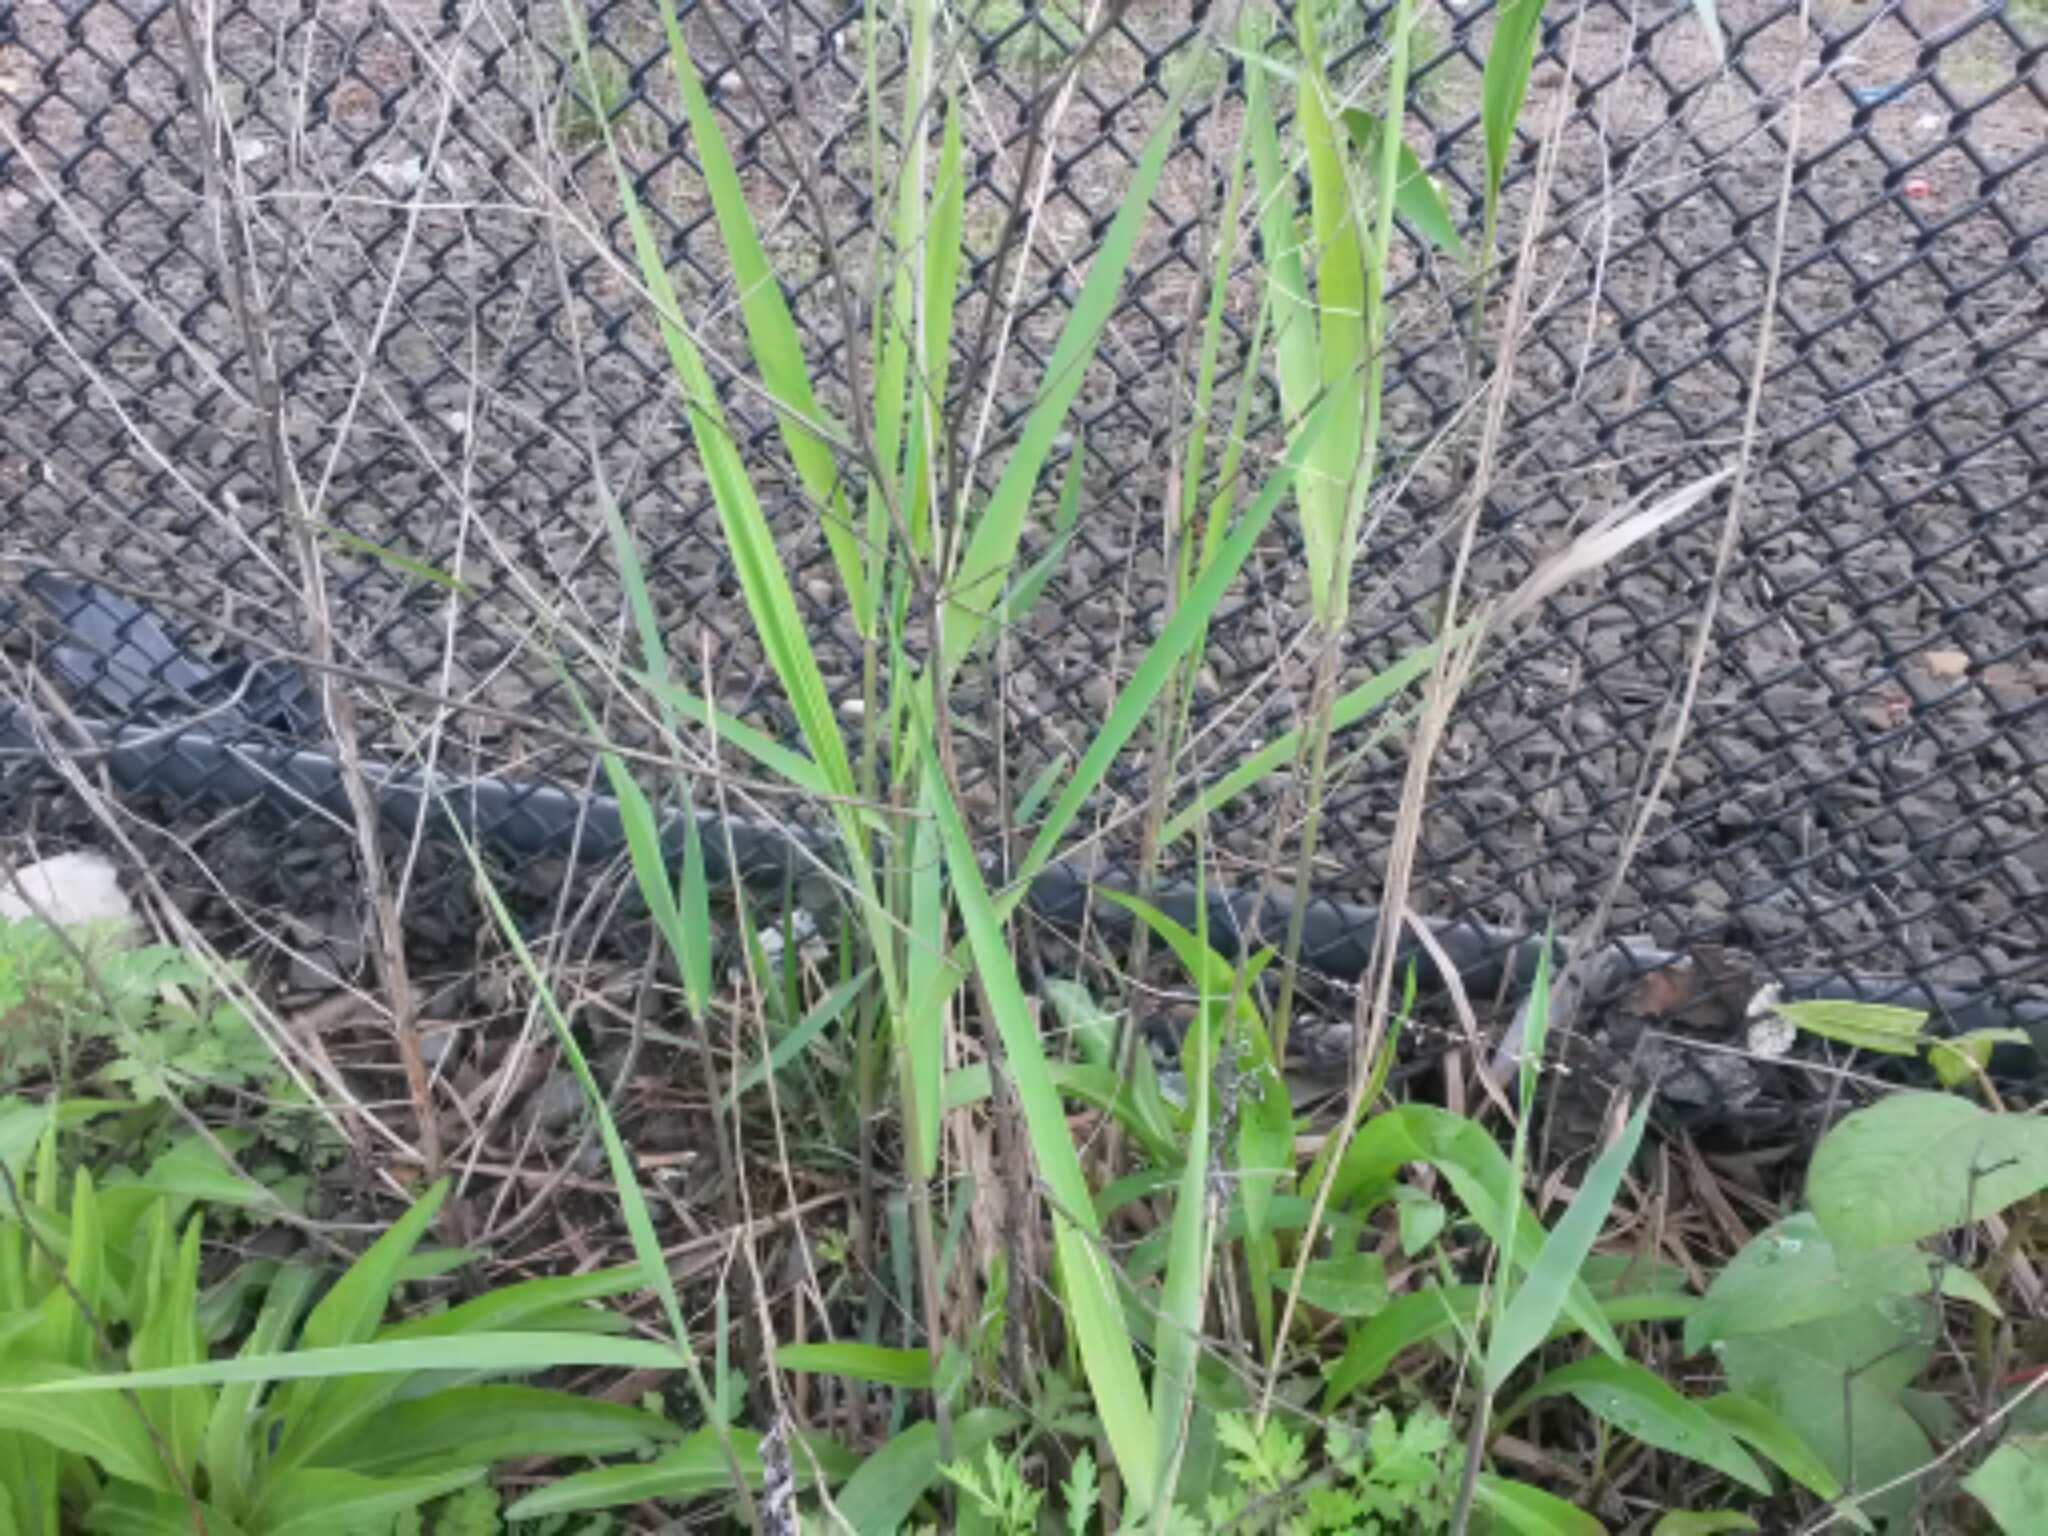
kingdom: Plantae
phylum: Tracheophyta
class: Liliopsida
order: Poales
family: Poaceae
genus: Phragmites
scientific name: Phragmites australis
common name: Common reed
